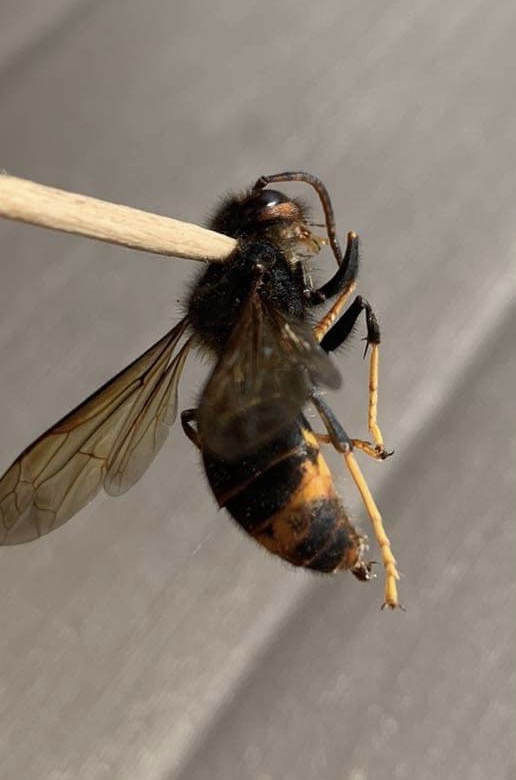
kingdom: Animalia
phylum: Arthropoda
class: Insecta
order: Hymenoptera
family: Vespidae
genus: Vespa
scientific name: Vespa velutina
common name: Asian hornet
